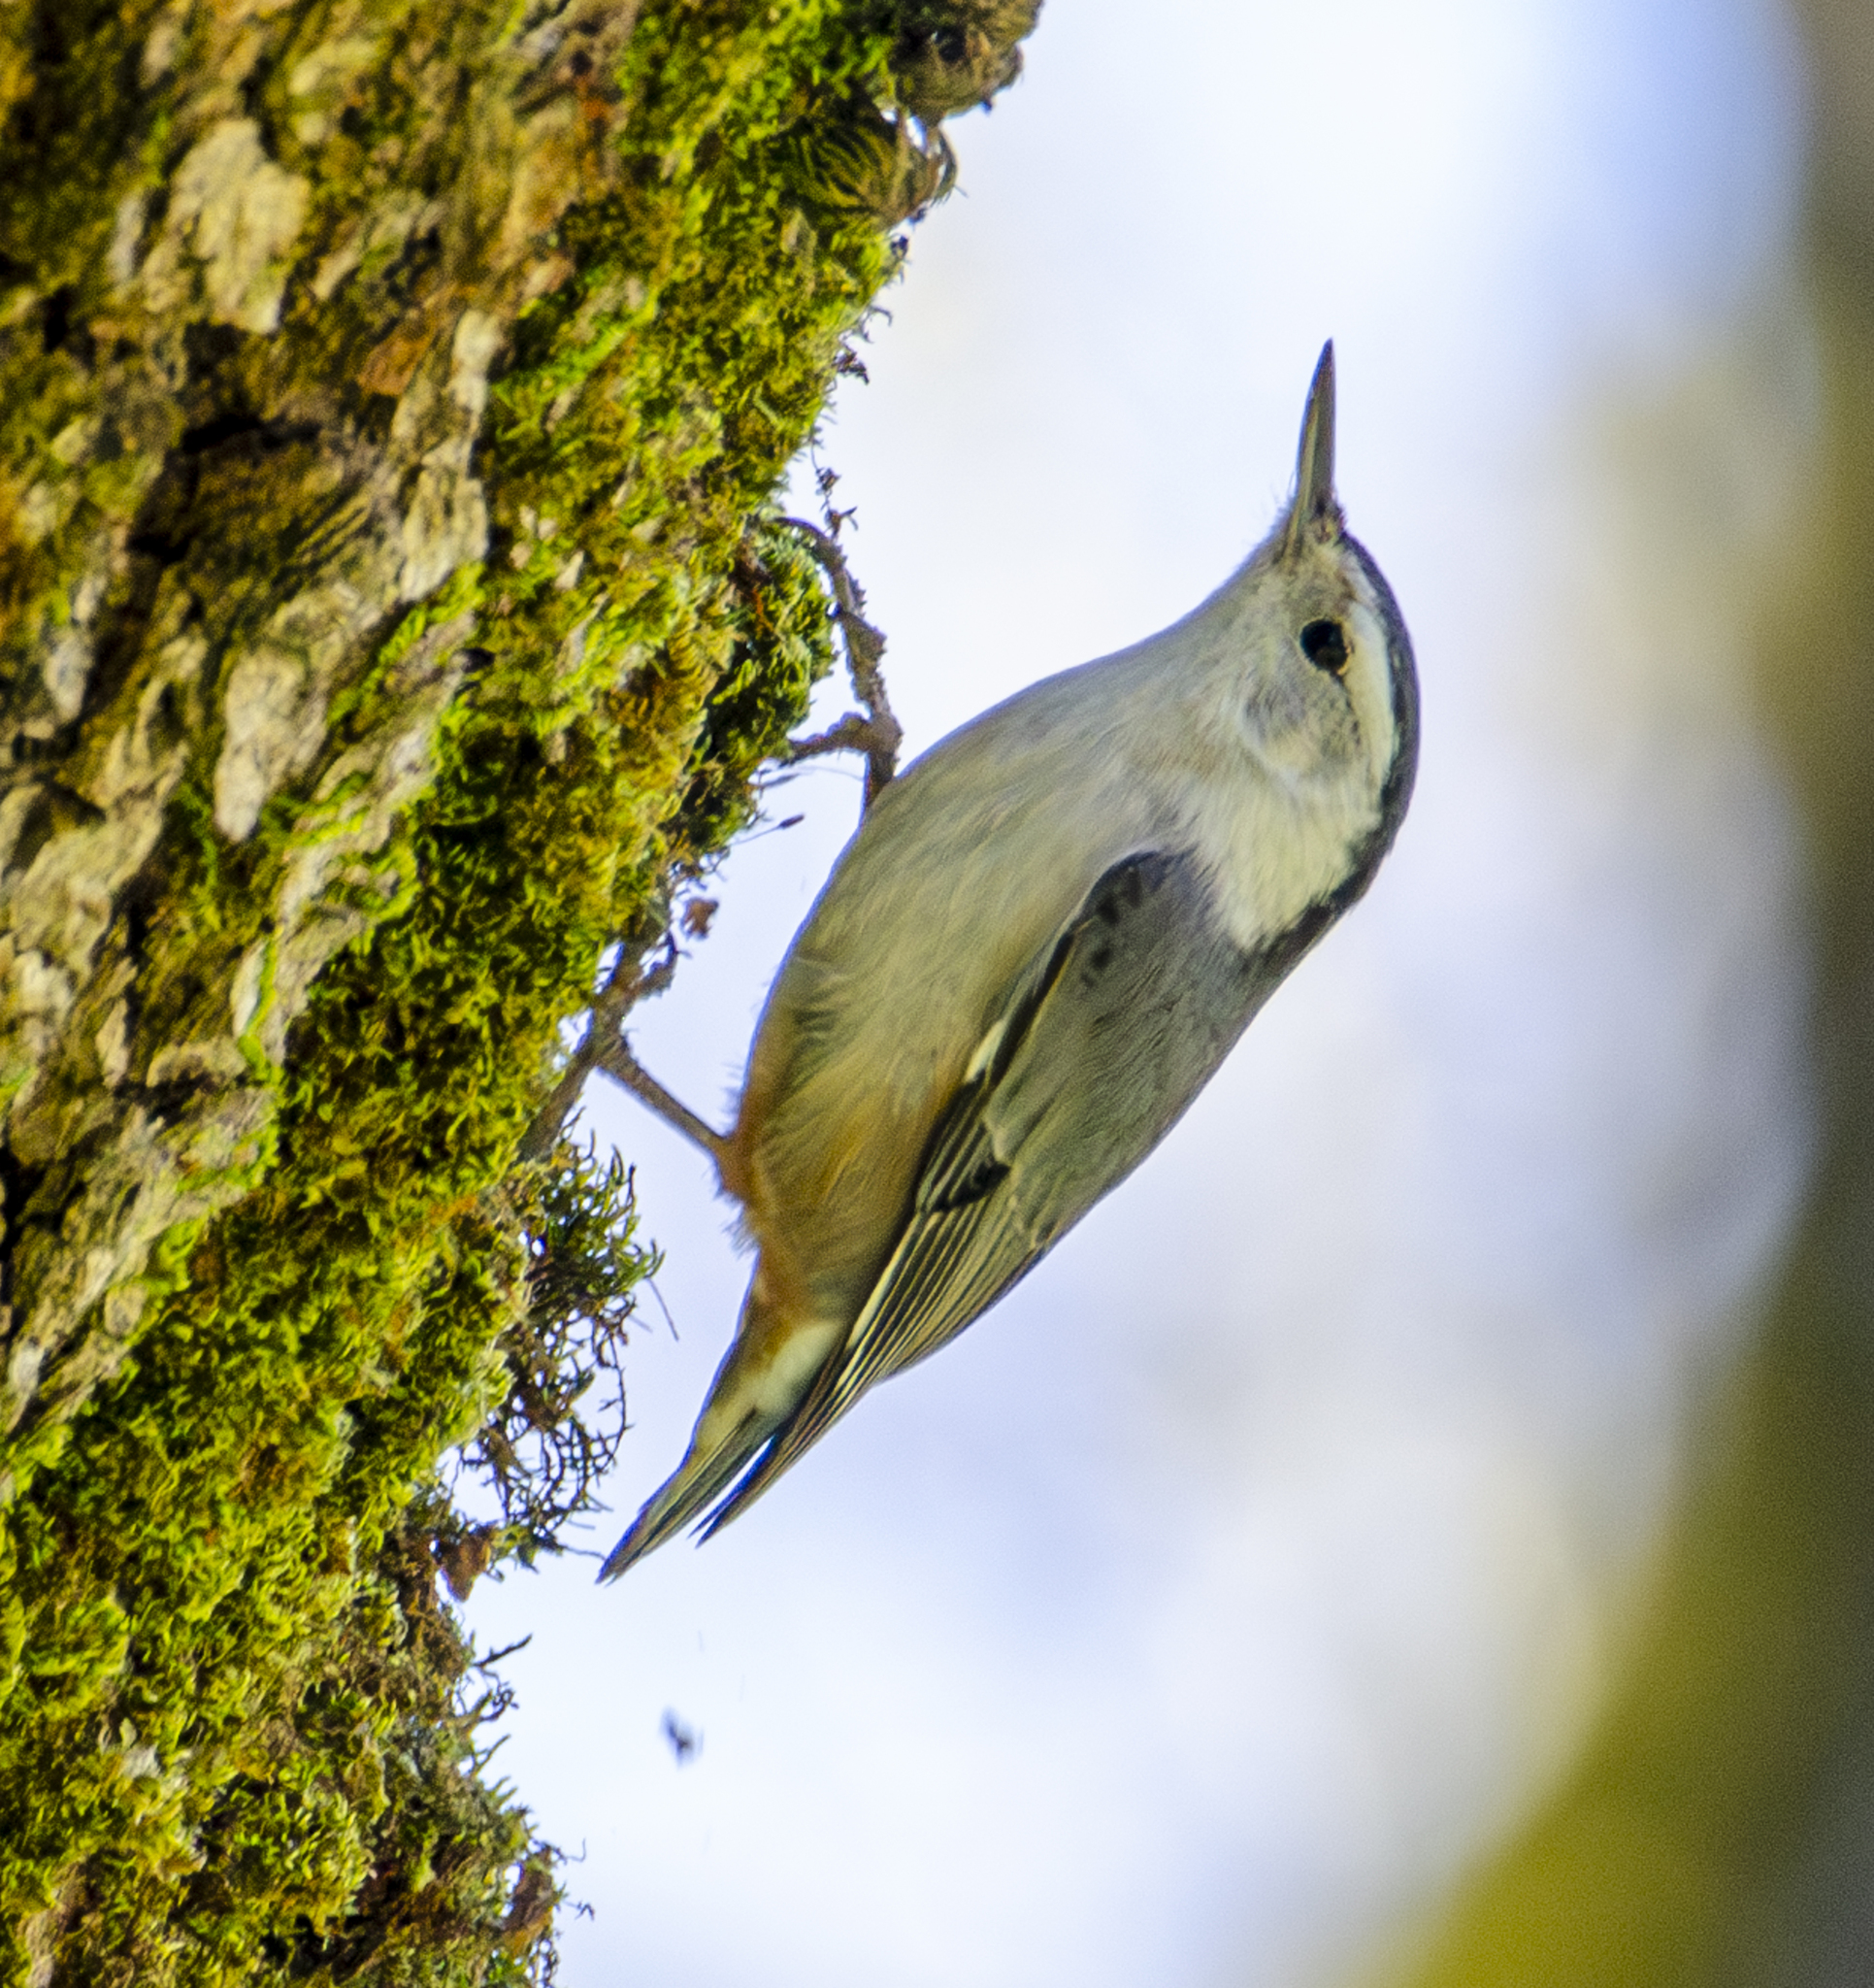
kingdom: Animalia
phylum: Chordata
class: Aves
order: Passeriformes
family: Sittidae
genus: Sitta
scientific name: Sitta carolinensis
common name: White-breasted nuthatch
